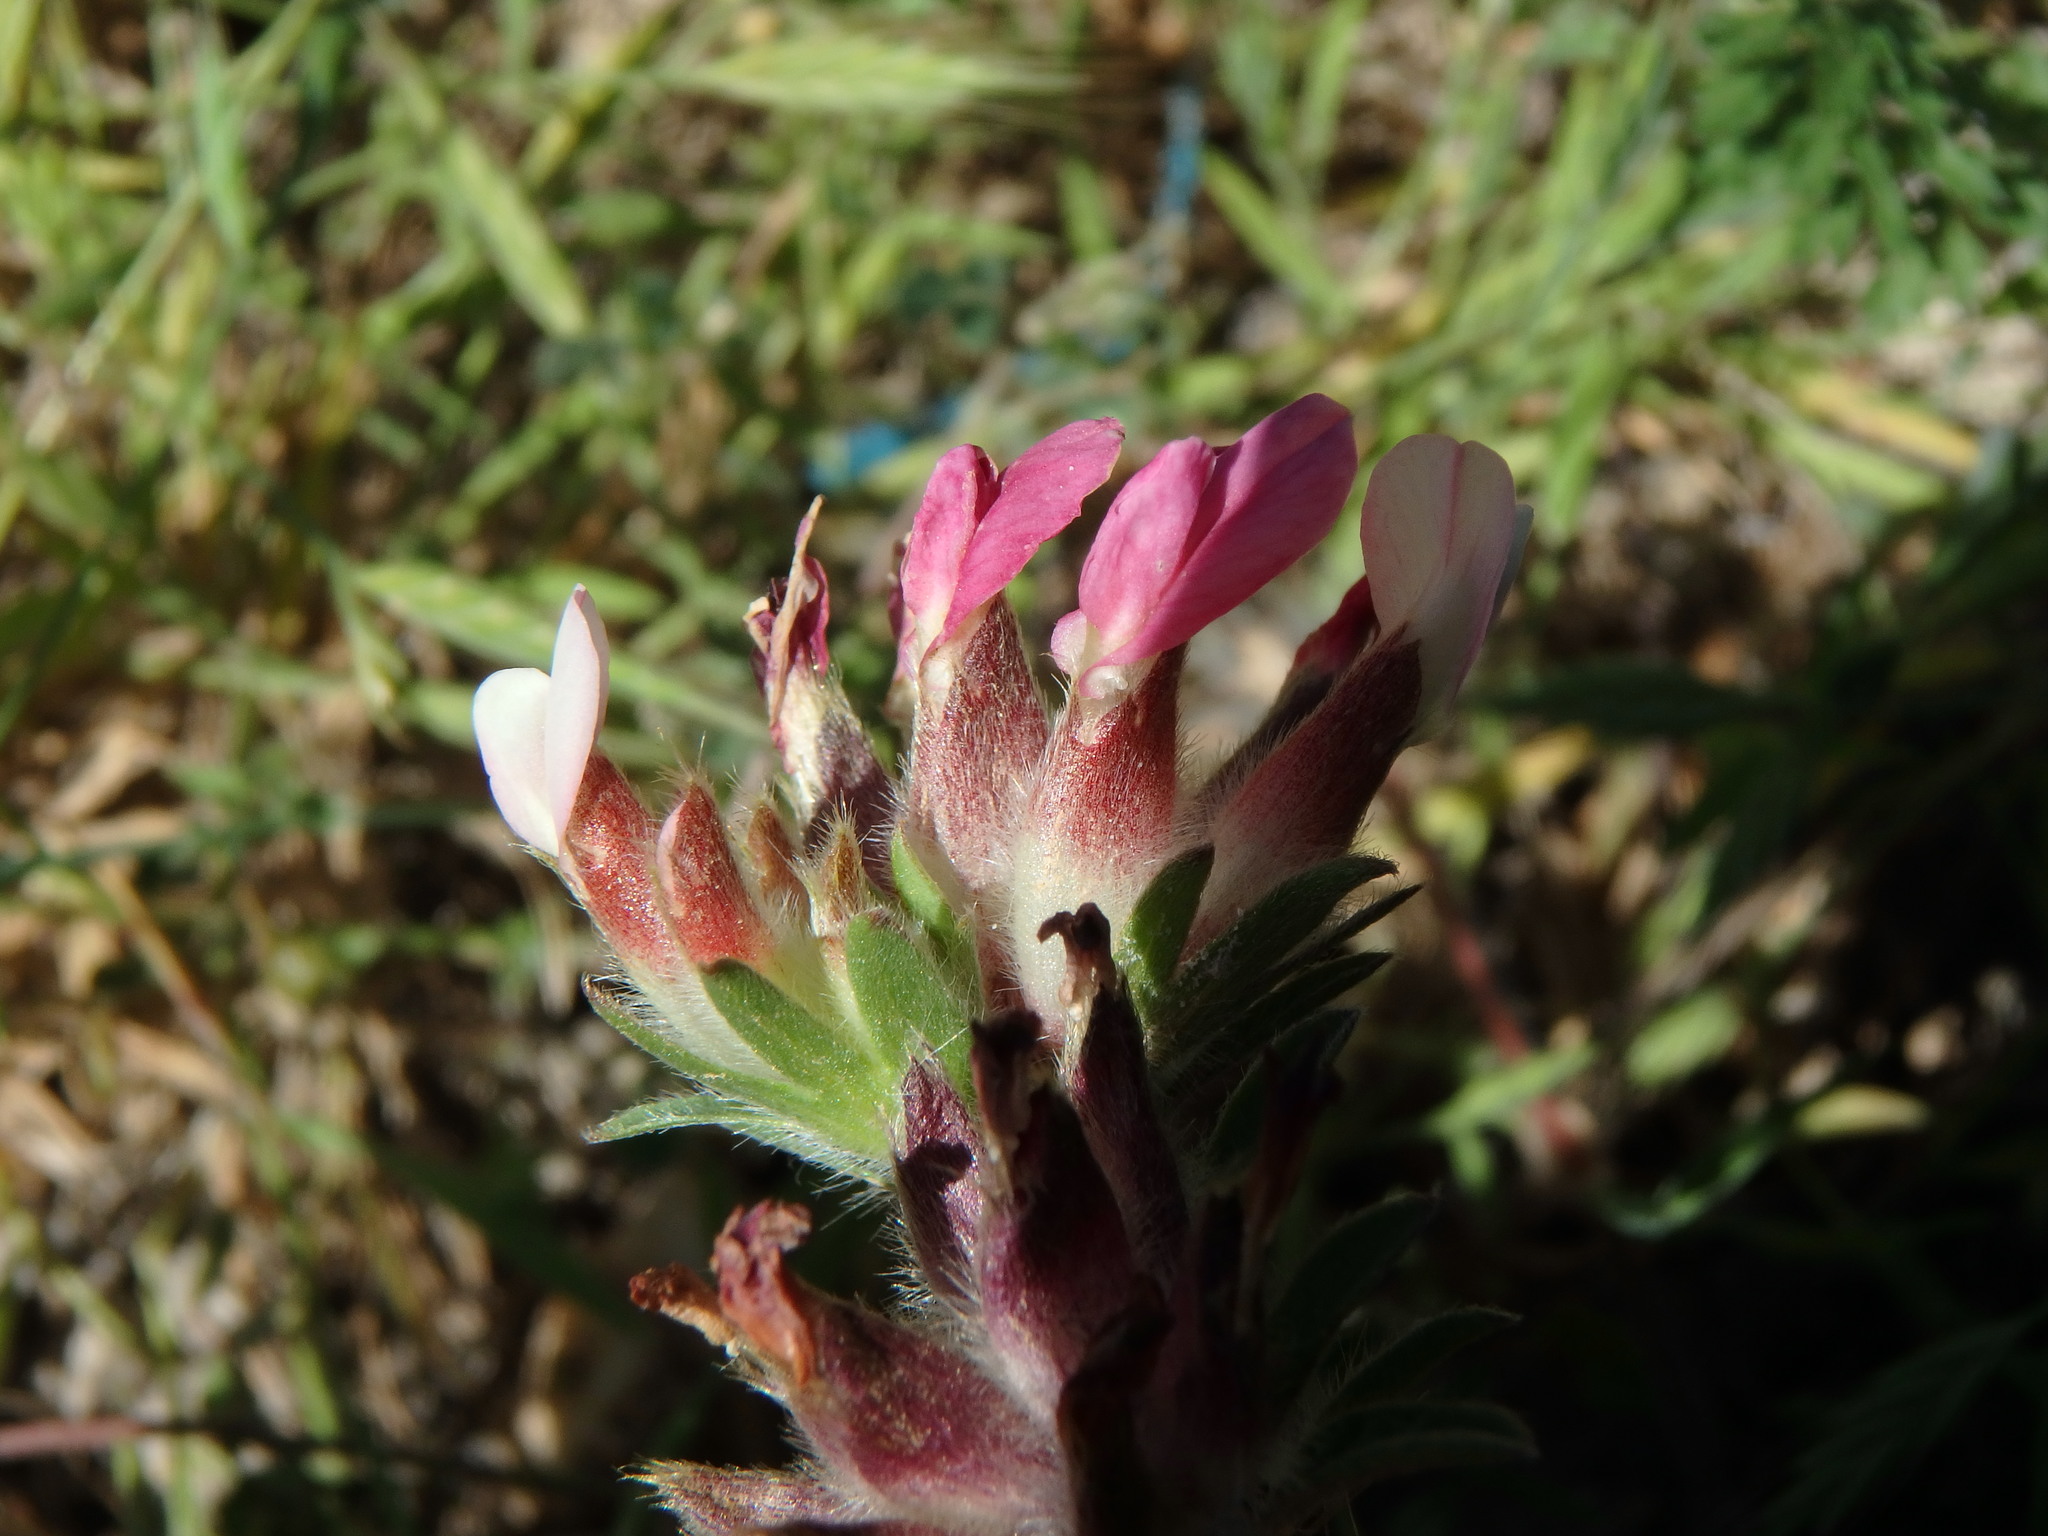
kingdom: Plantae
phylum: Tracheophyta
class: Magnoliopsida
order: Fabales
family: Fabaceae
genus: Anthyllis
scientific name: Anthyllis vulneraria
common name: Kidney vetch
